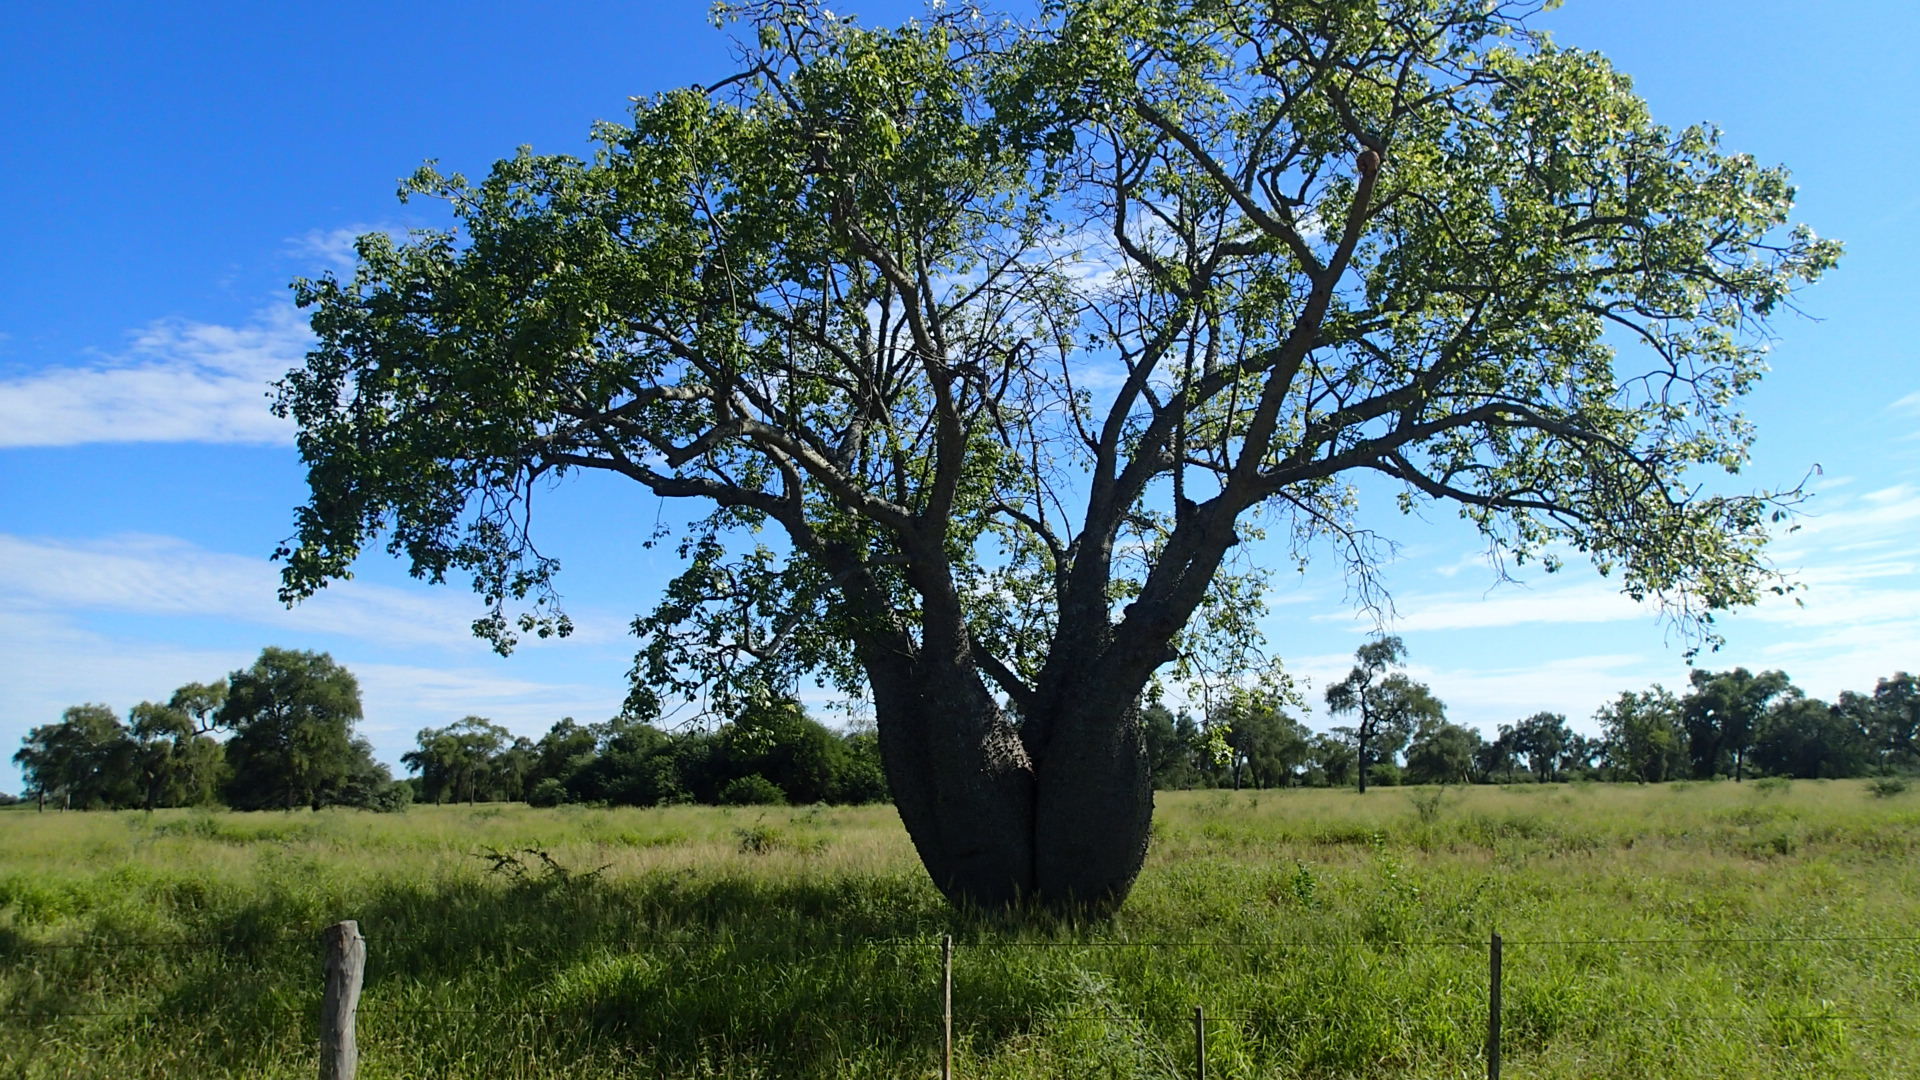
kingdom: Plantae
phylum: Tracheophyta
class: Magnoliopsida
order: Malvales
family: Malvaceae
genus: Ceiba
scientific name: Ceiba chodatii
